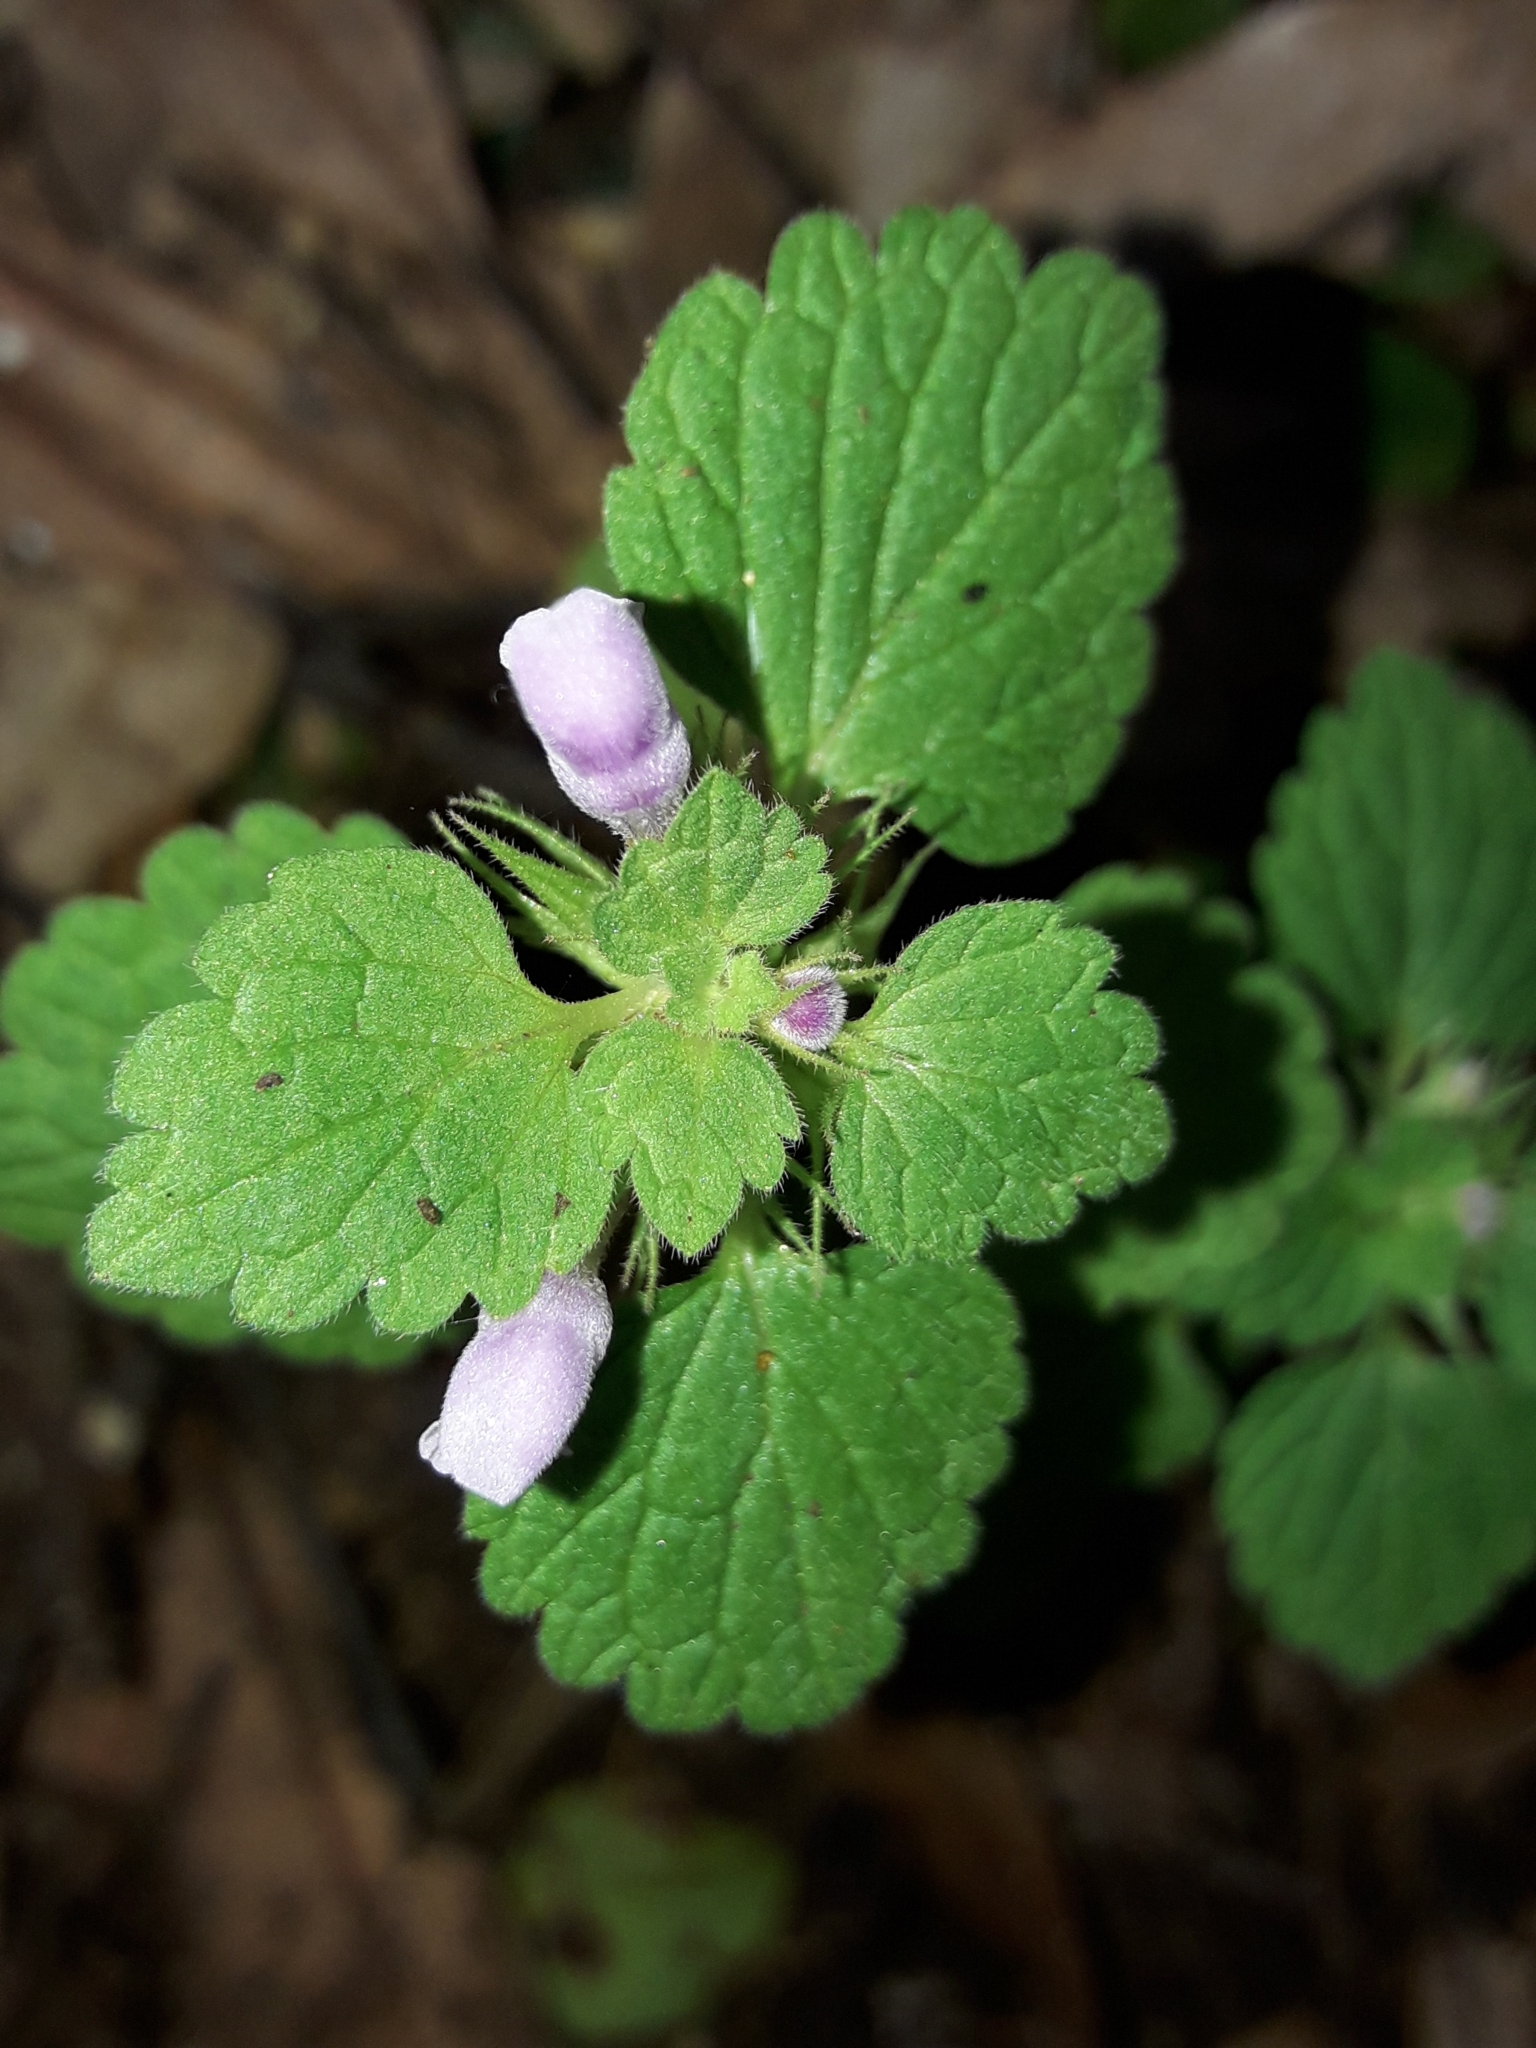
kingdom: Plantae
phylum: Tracheophyta
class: Magnoliopsida
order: Lamiales
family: Lamiaceae
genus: Lamium
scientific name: Lamium purpureum
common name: Red dead-nettle
